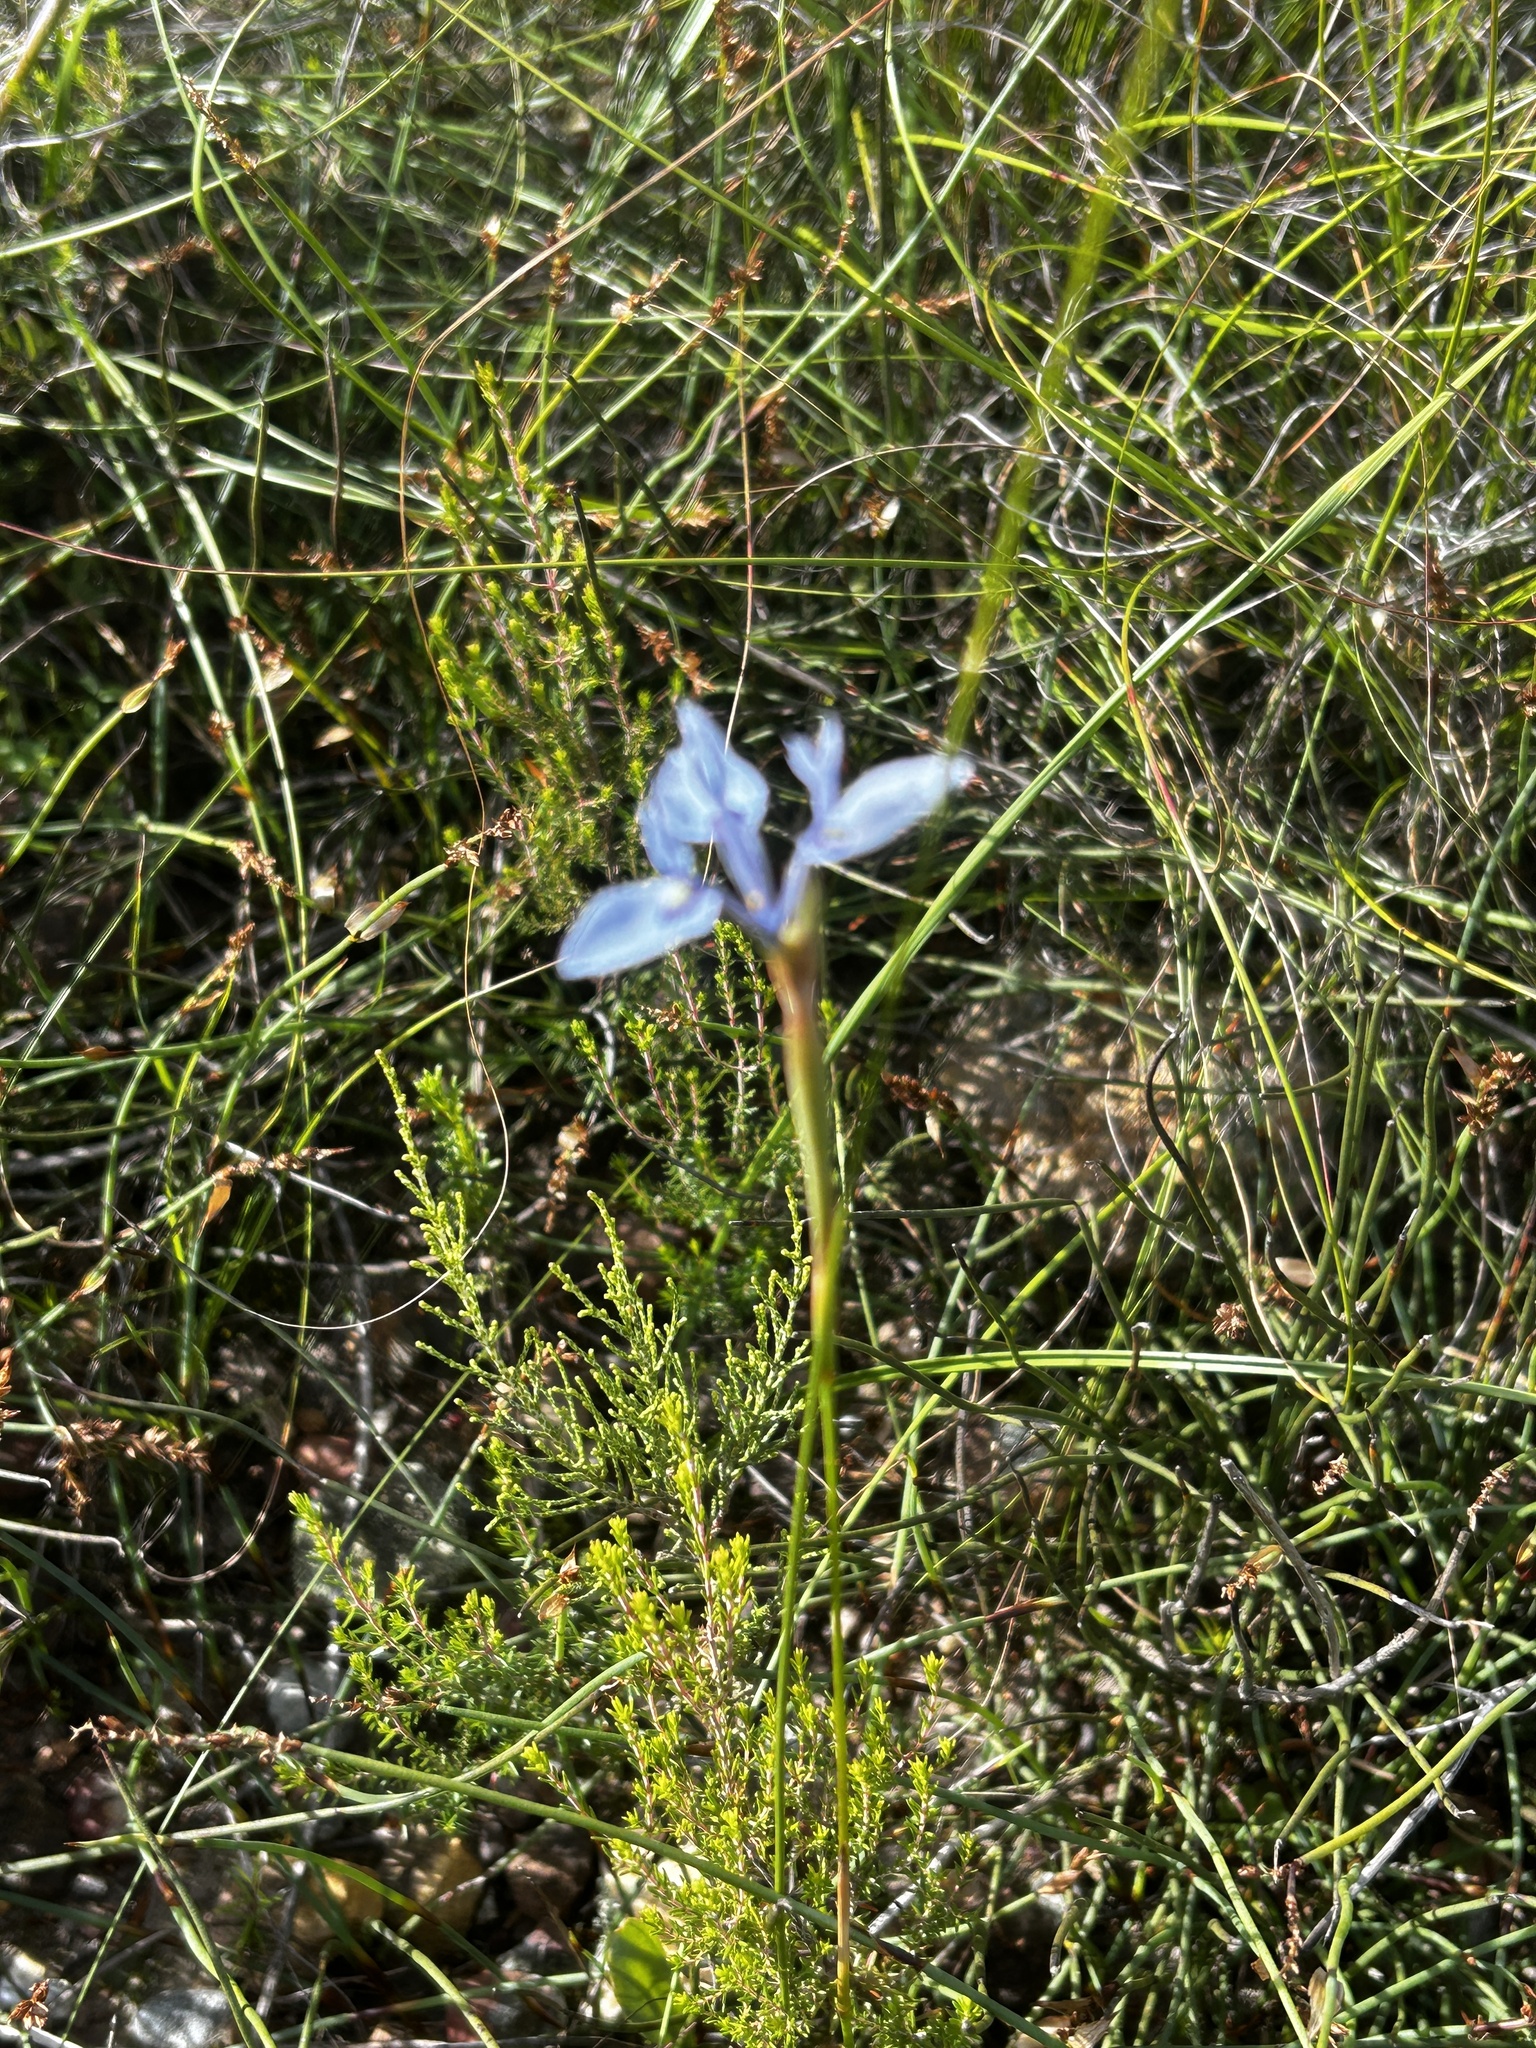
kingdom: Plantae
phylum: Tracheophyta
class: Liliopsida
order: Asparagales
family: Iridaceae
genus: Moraea
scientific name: Moraea tripetala
